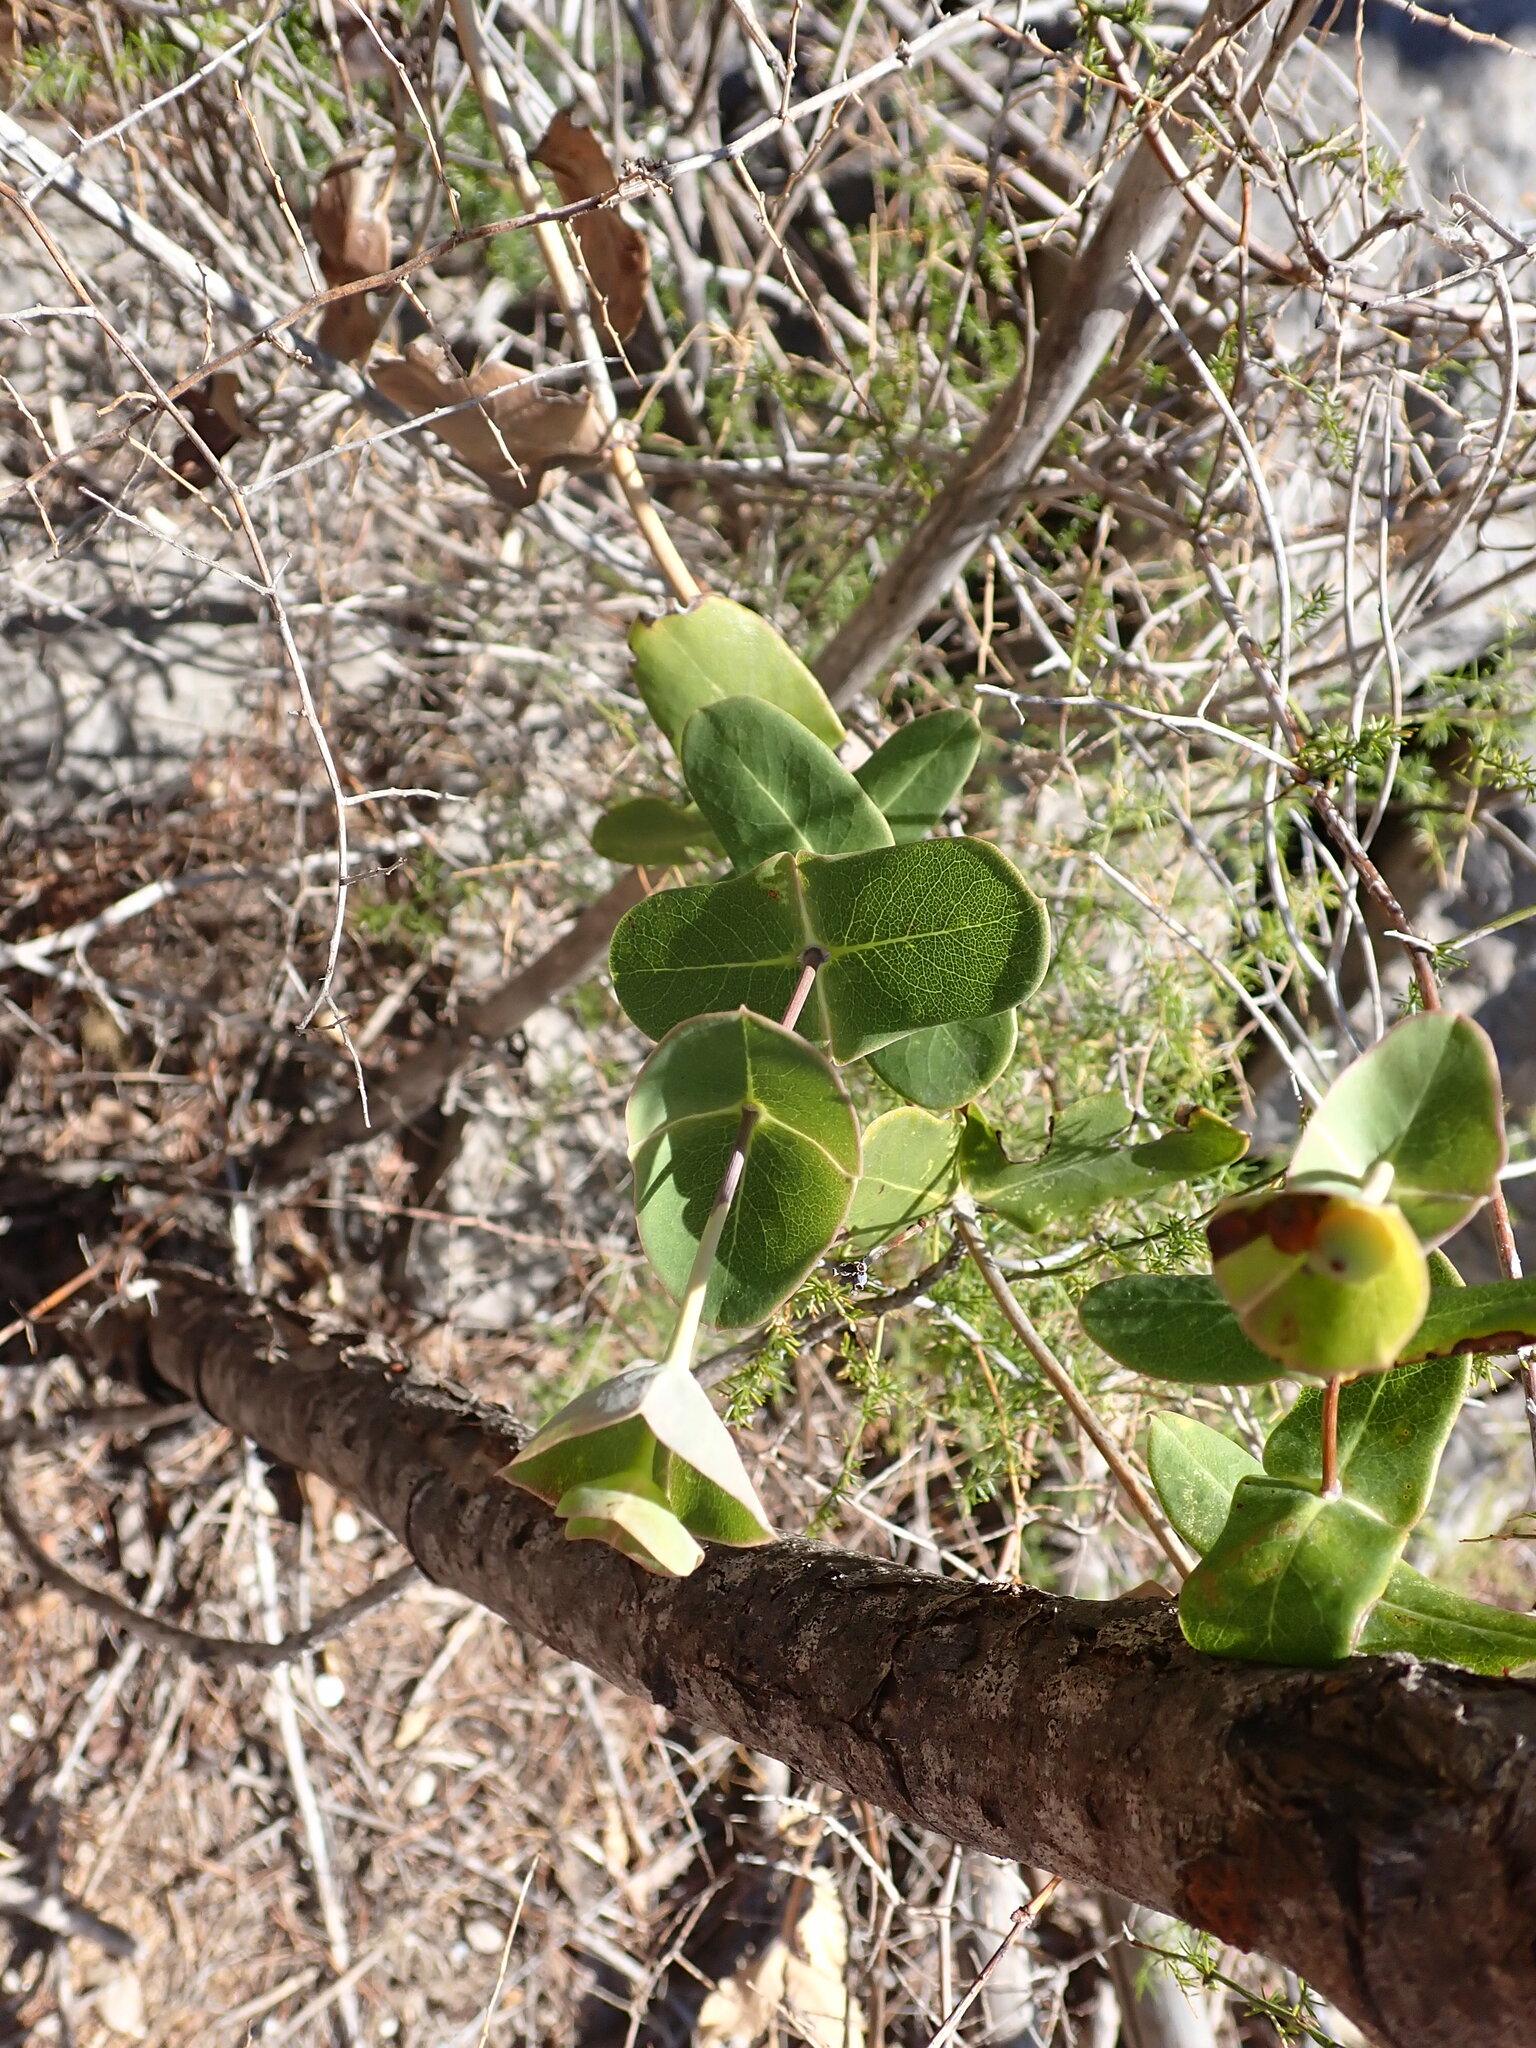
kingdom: Plantae
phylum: Tracheophyta
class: Magnoliopsida
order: Dipsacales
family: Caprifoliaceae
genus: Lonicera
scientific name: Lonicera implexa
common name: Minorca honeysuckle
